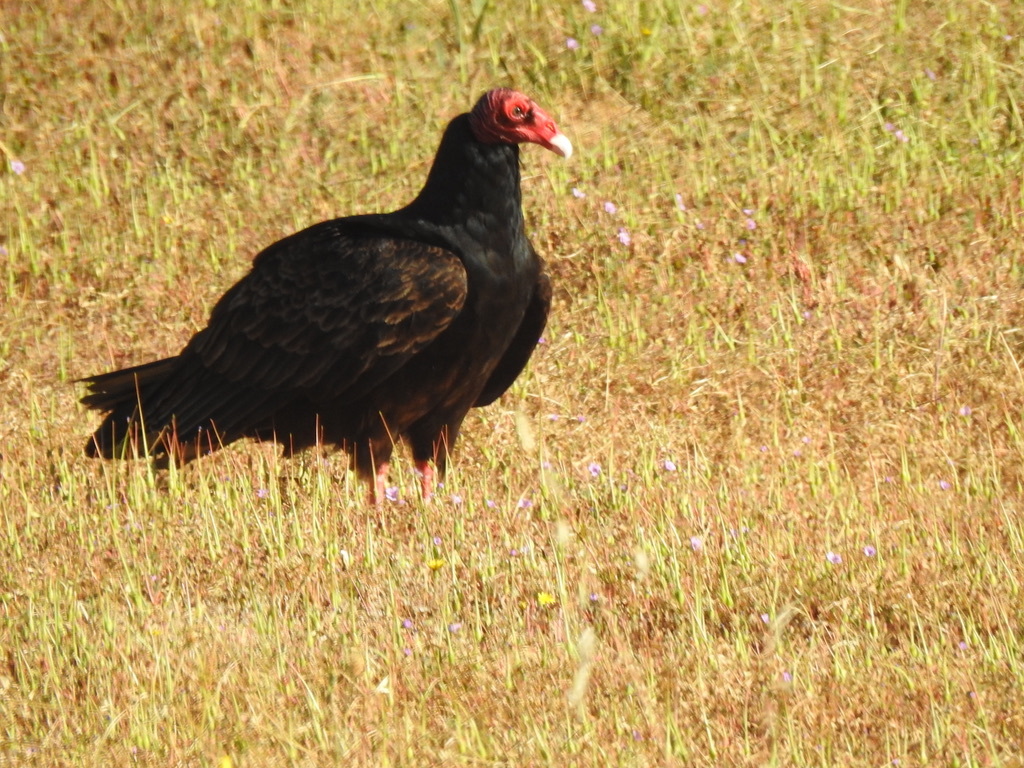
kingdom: Animalia
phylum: Chordata
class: Aves
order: Accipitriformes
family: Cathartidae
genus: Cathartes
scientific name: Cathartes aura
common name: Turkey vulture
